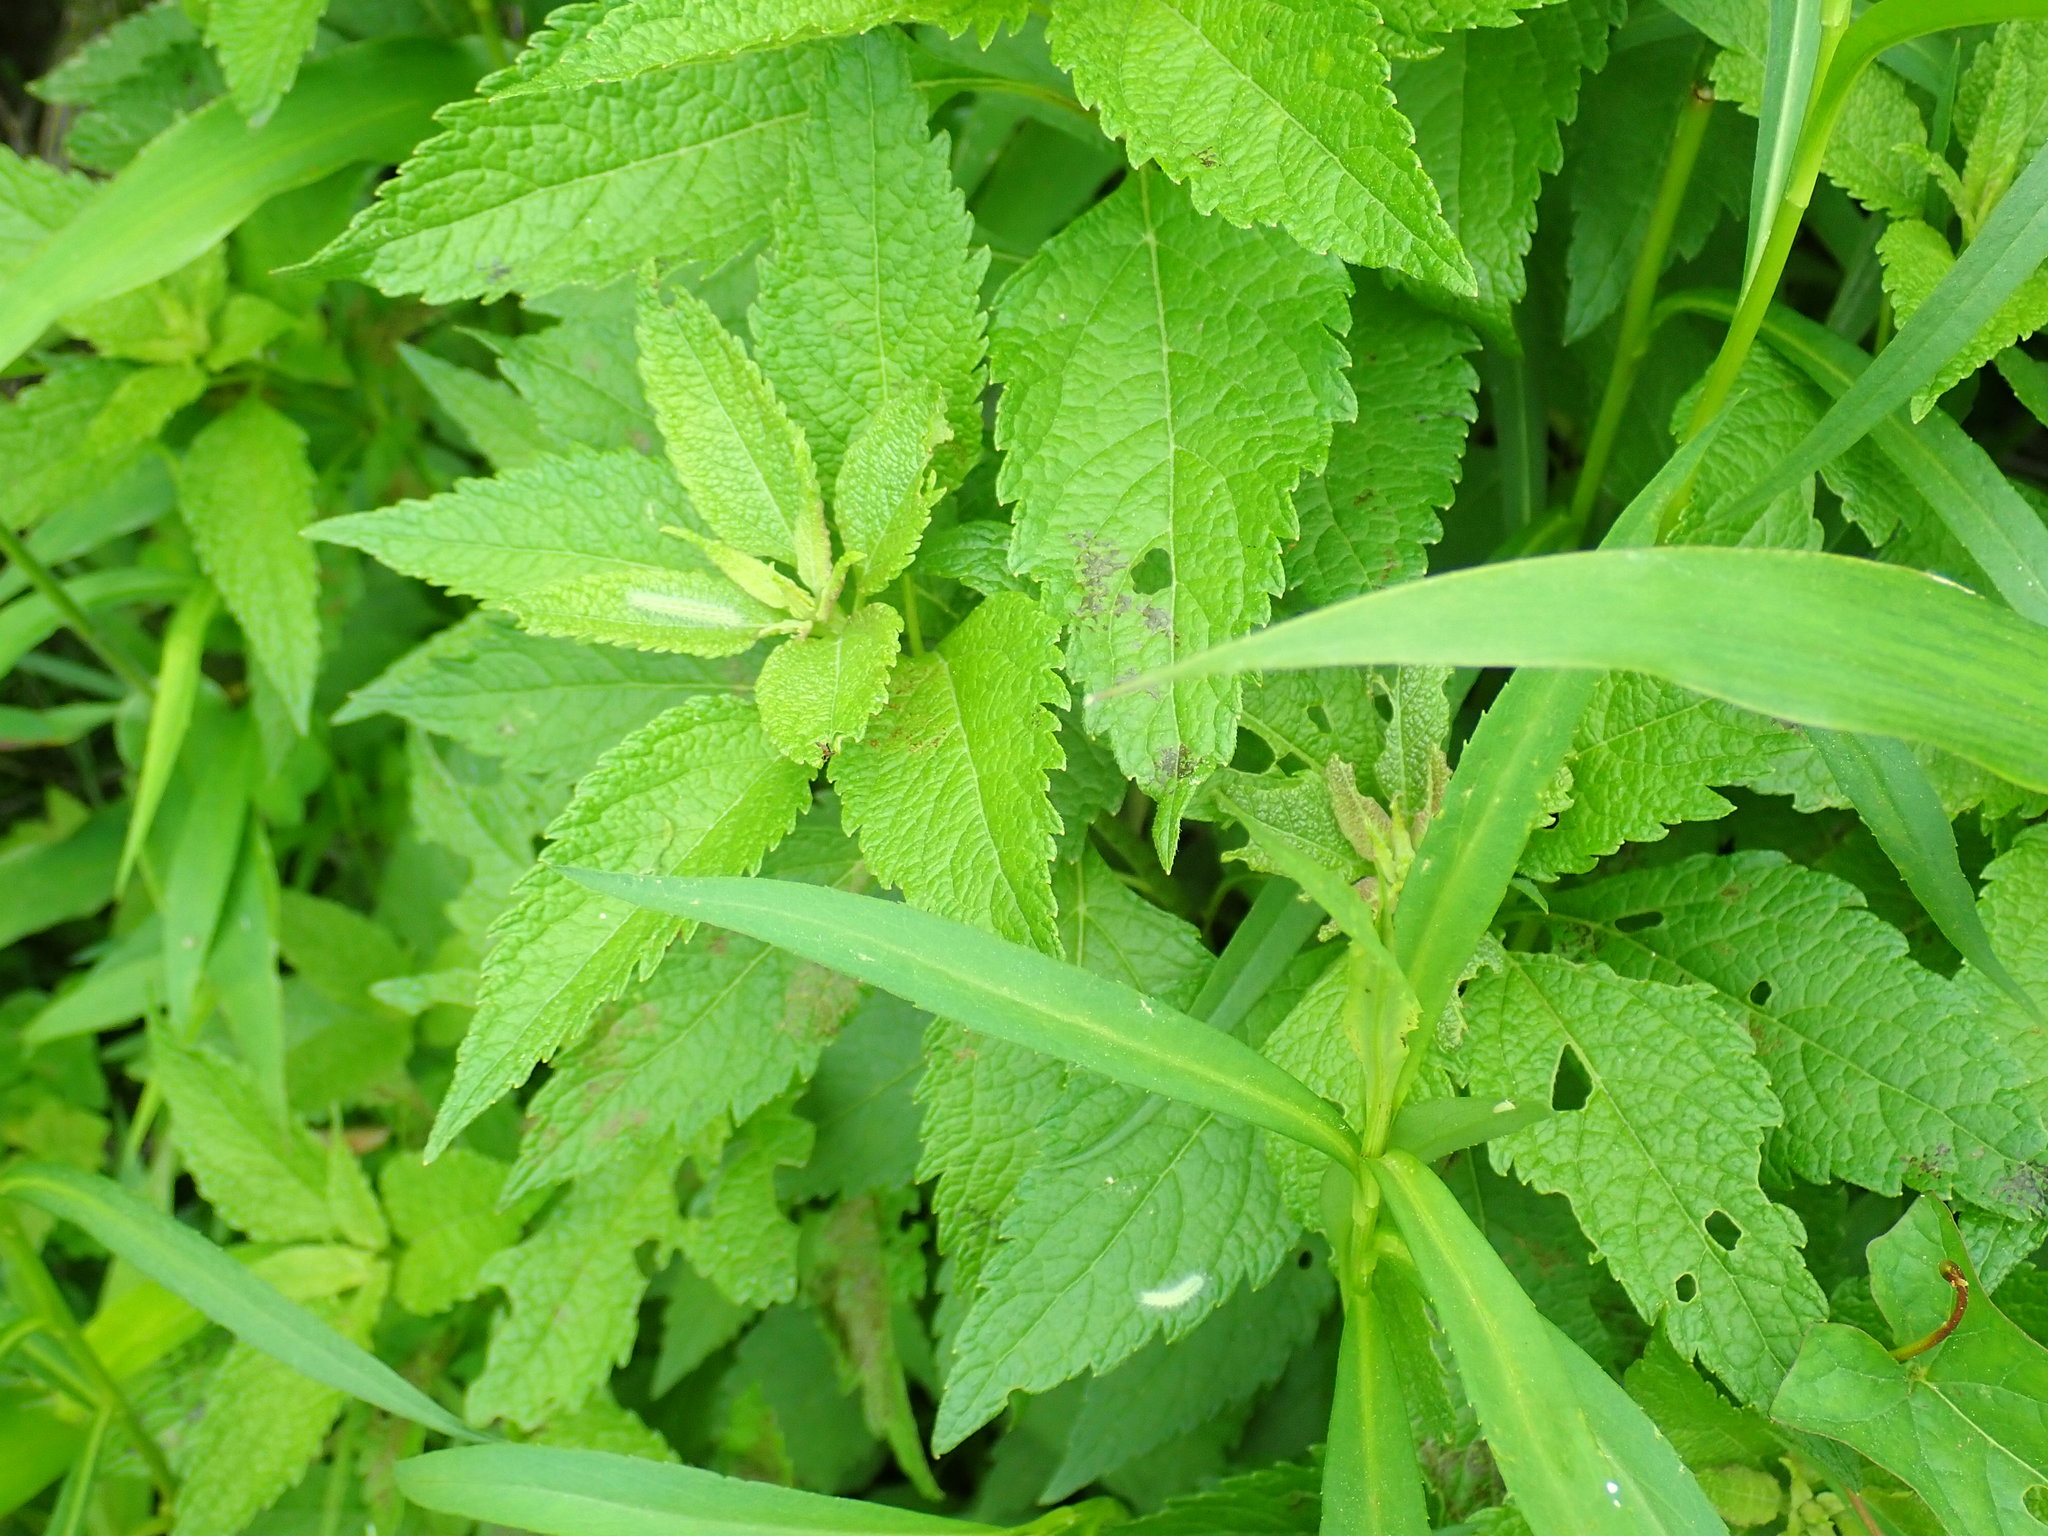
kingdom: Plantae
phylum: Tracheophyta
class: Magnoliopsida
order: Asterales
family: Asteraceae
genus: Eutrochium
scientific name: Eutrochium
